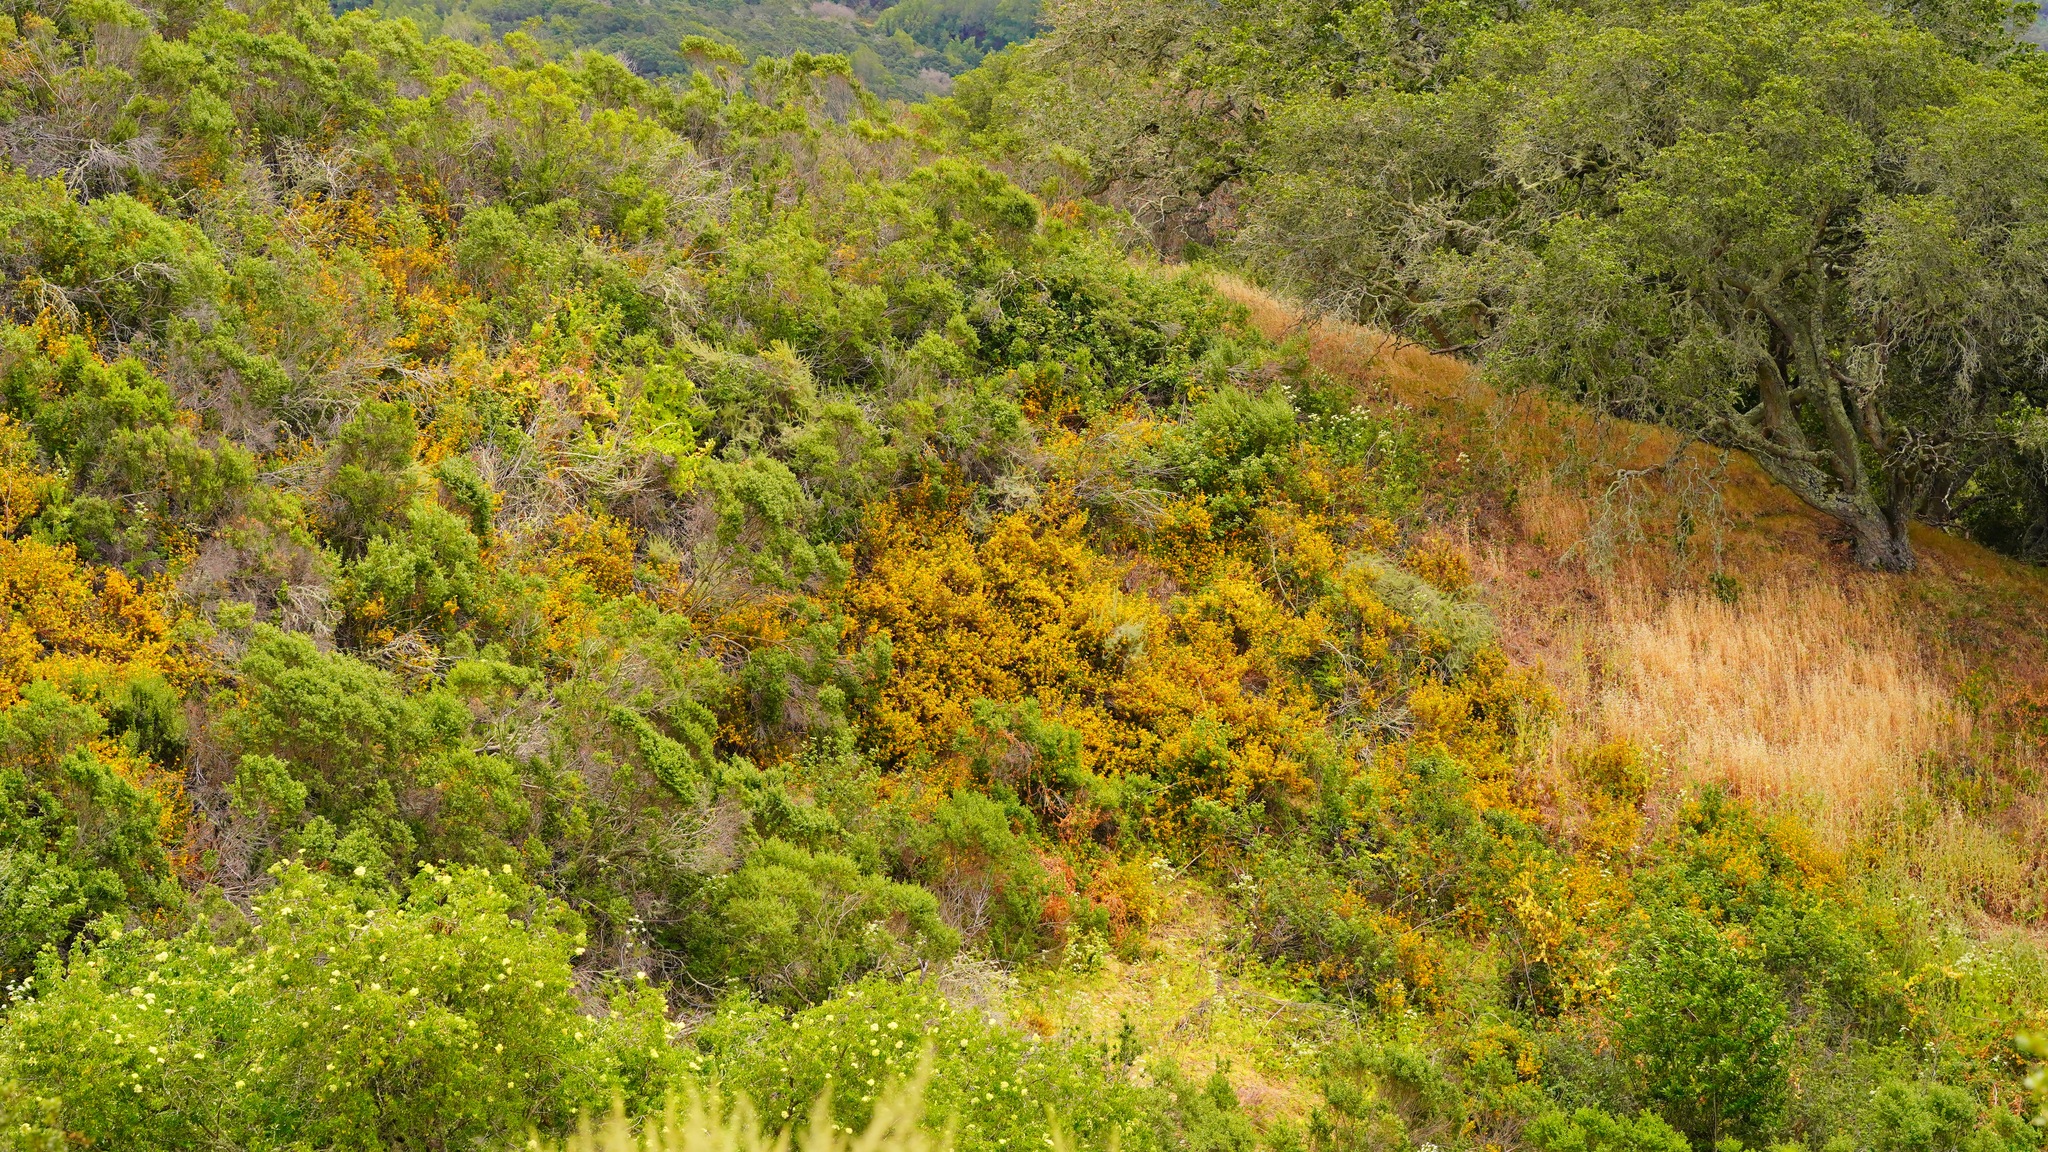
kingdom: Plantae
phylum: Tracheophyta
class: Magnoliopsida
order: Lamiales
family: Phrymaceae
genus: Diplacus
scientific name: Diplacus aurantiacus
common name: Bush monkey-flower
